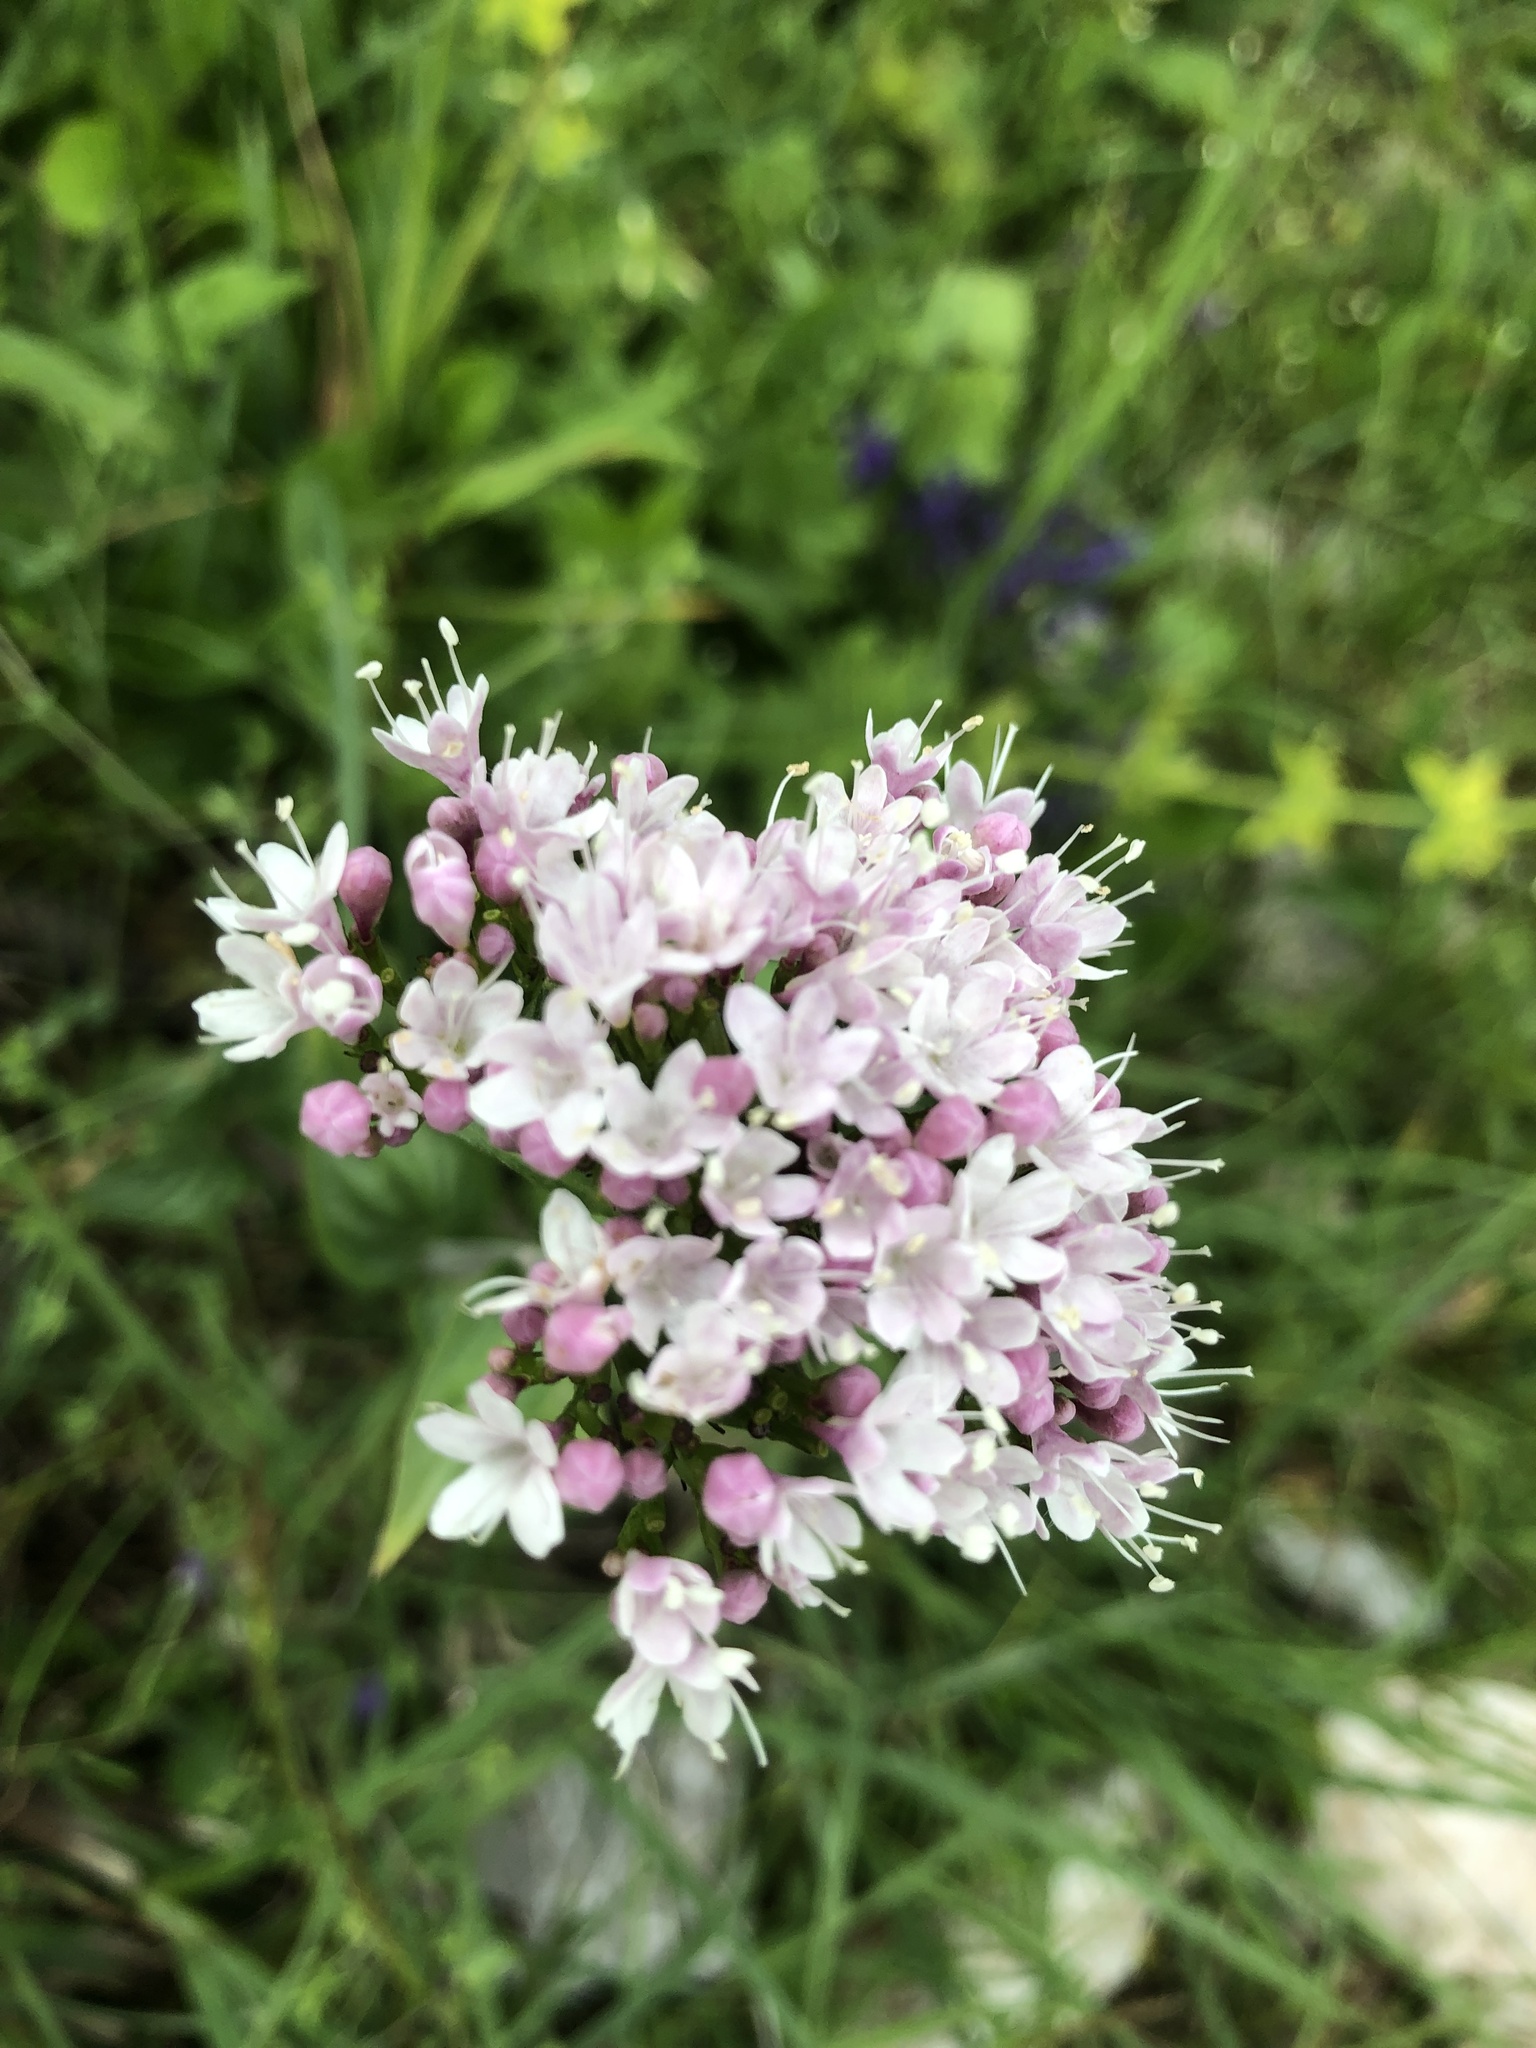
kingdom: Plantae
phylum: Tracheophyta
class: Magnoliopsida
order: Dipsacales
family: Caprifoliaceae
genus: Valeriana
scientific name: Valeriana montana
